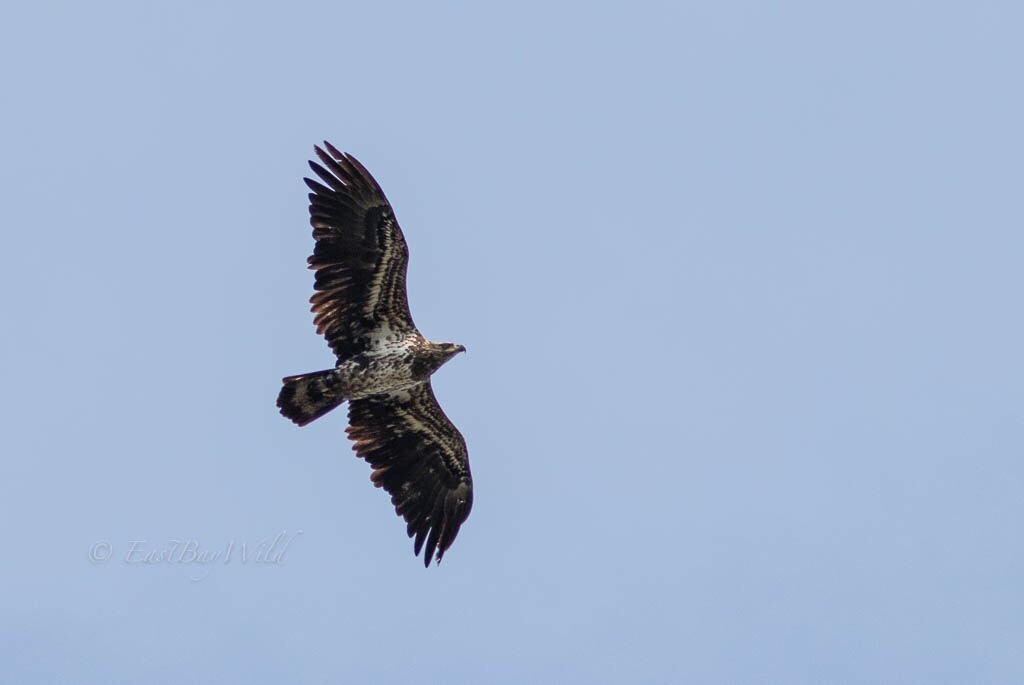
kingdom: Animalia
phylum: Chordata
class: Aves
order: Accipitriformes
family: Accipitridae
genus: Haliaeetus
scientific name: Haliaeetus leucocephalus
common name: Bald eagle
